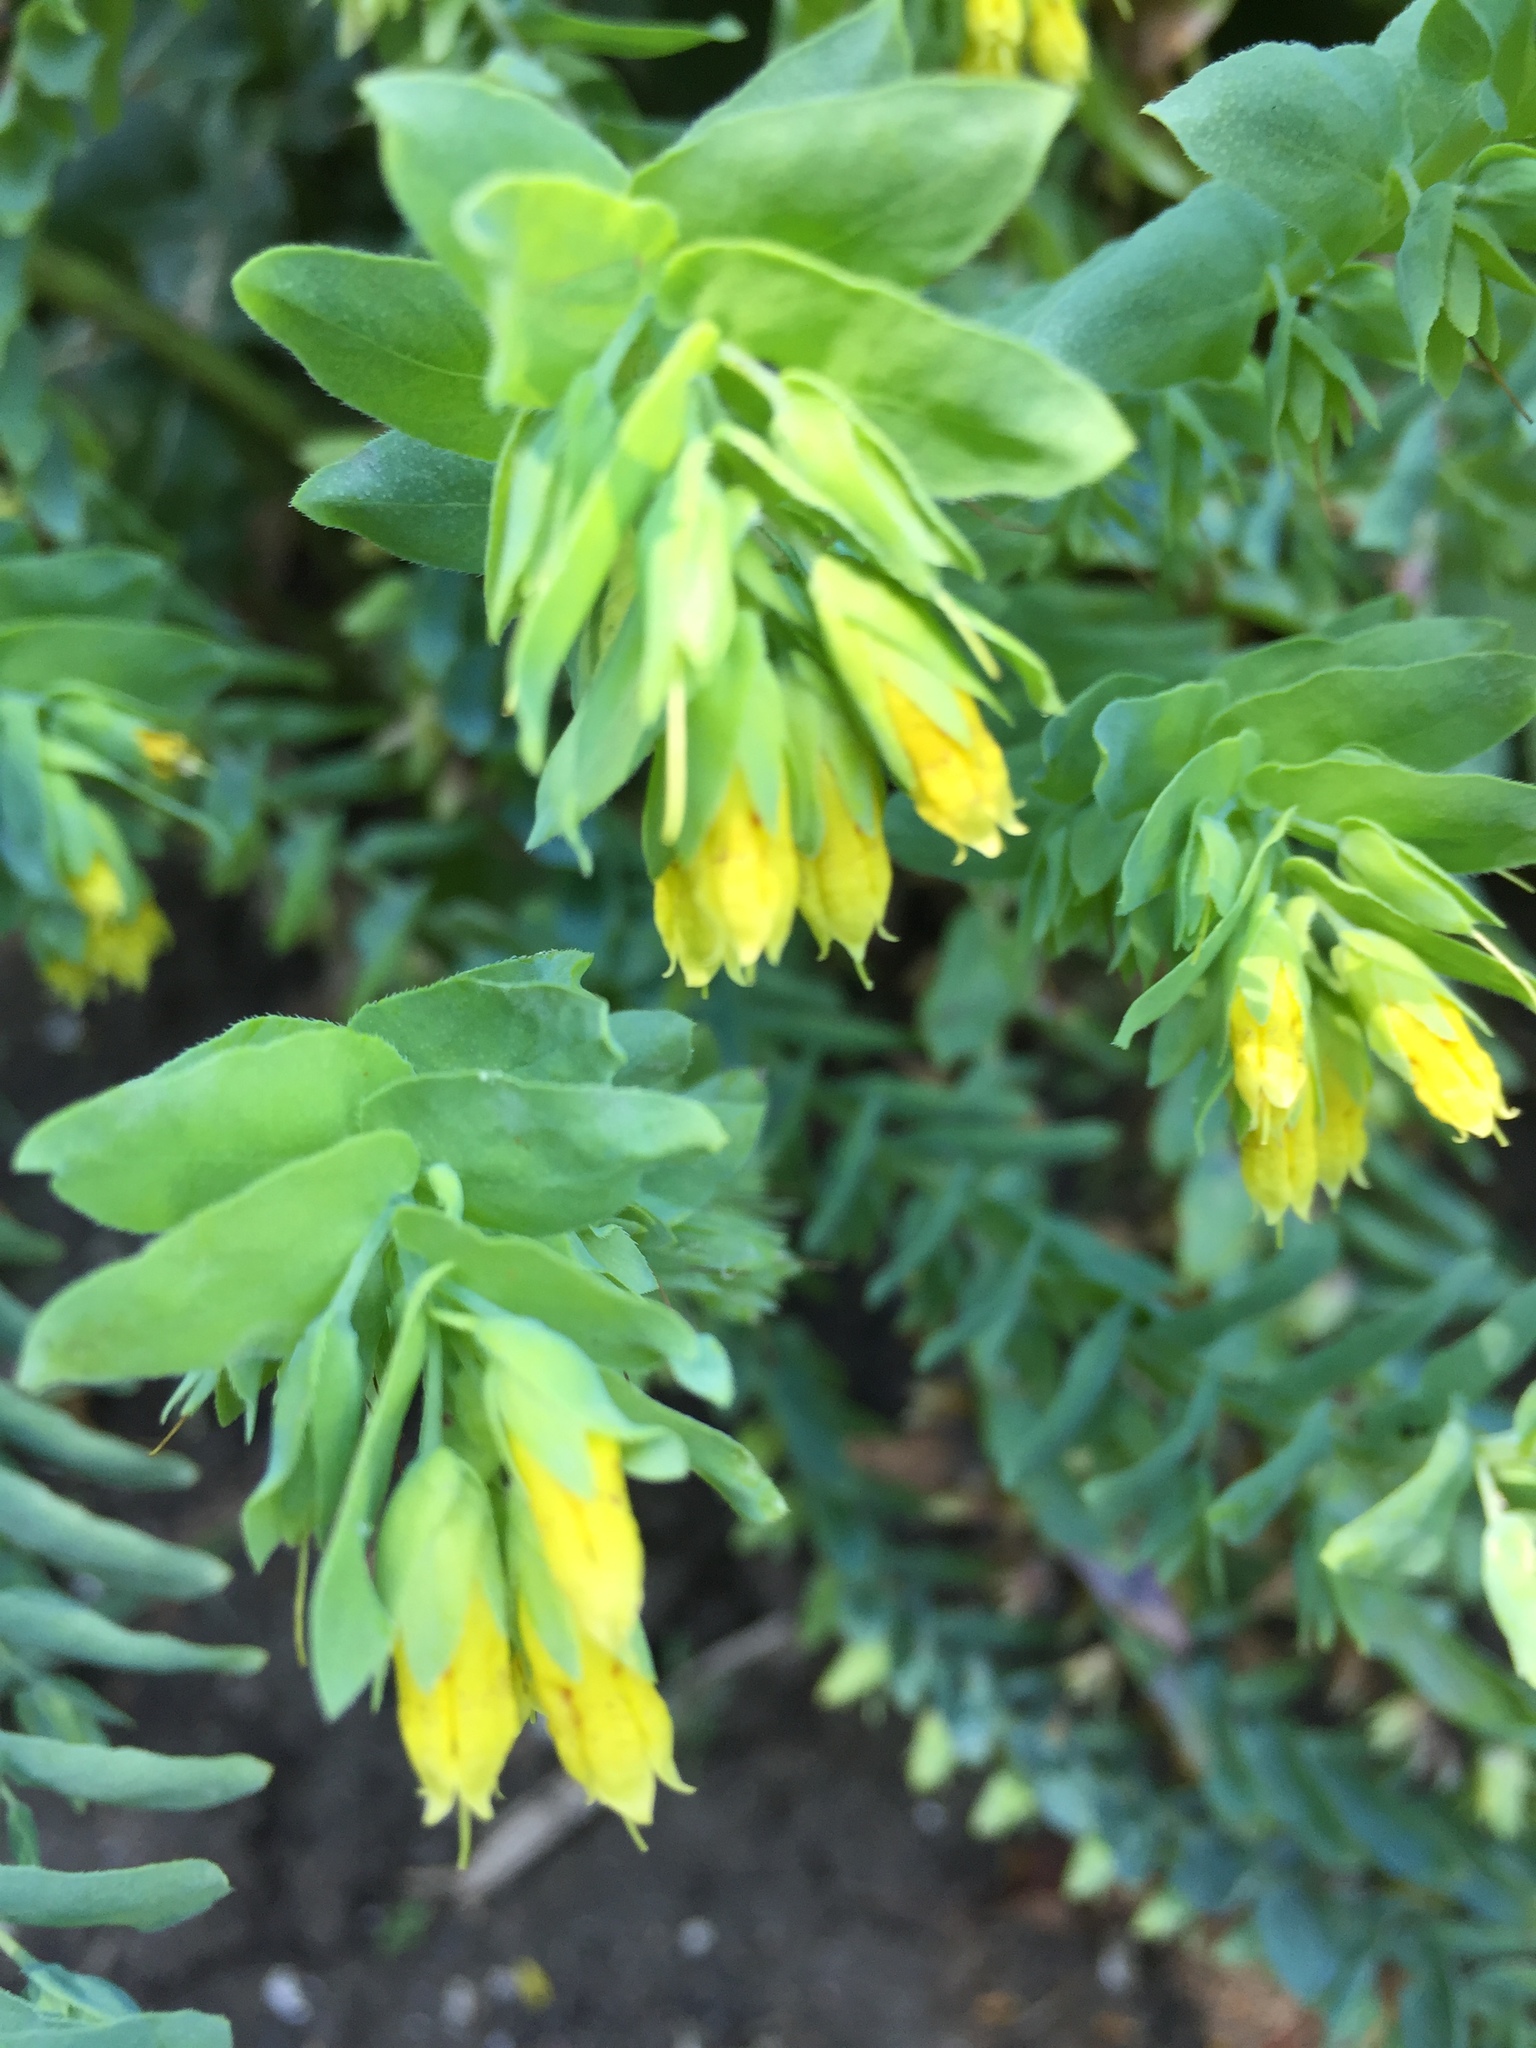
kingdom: Plantae
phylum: Tracheophyta
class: Magnoliopsida
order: Boraginales
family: Boraginaceae
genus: Cerinthe
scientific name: Cerinthe minor
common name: Lesser honeywort
